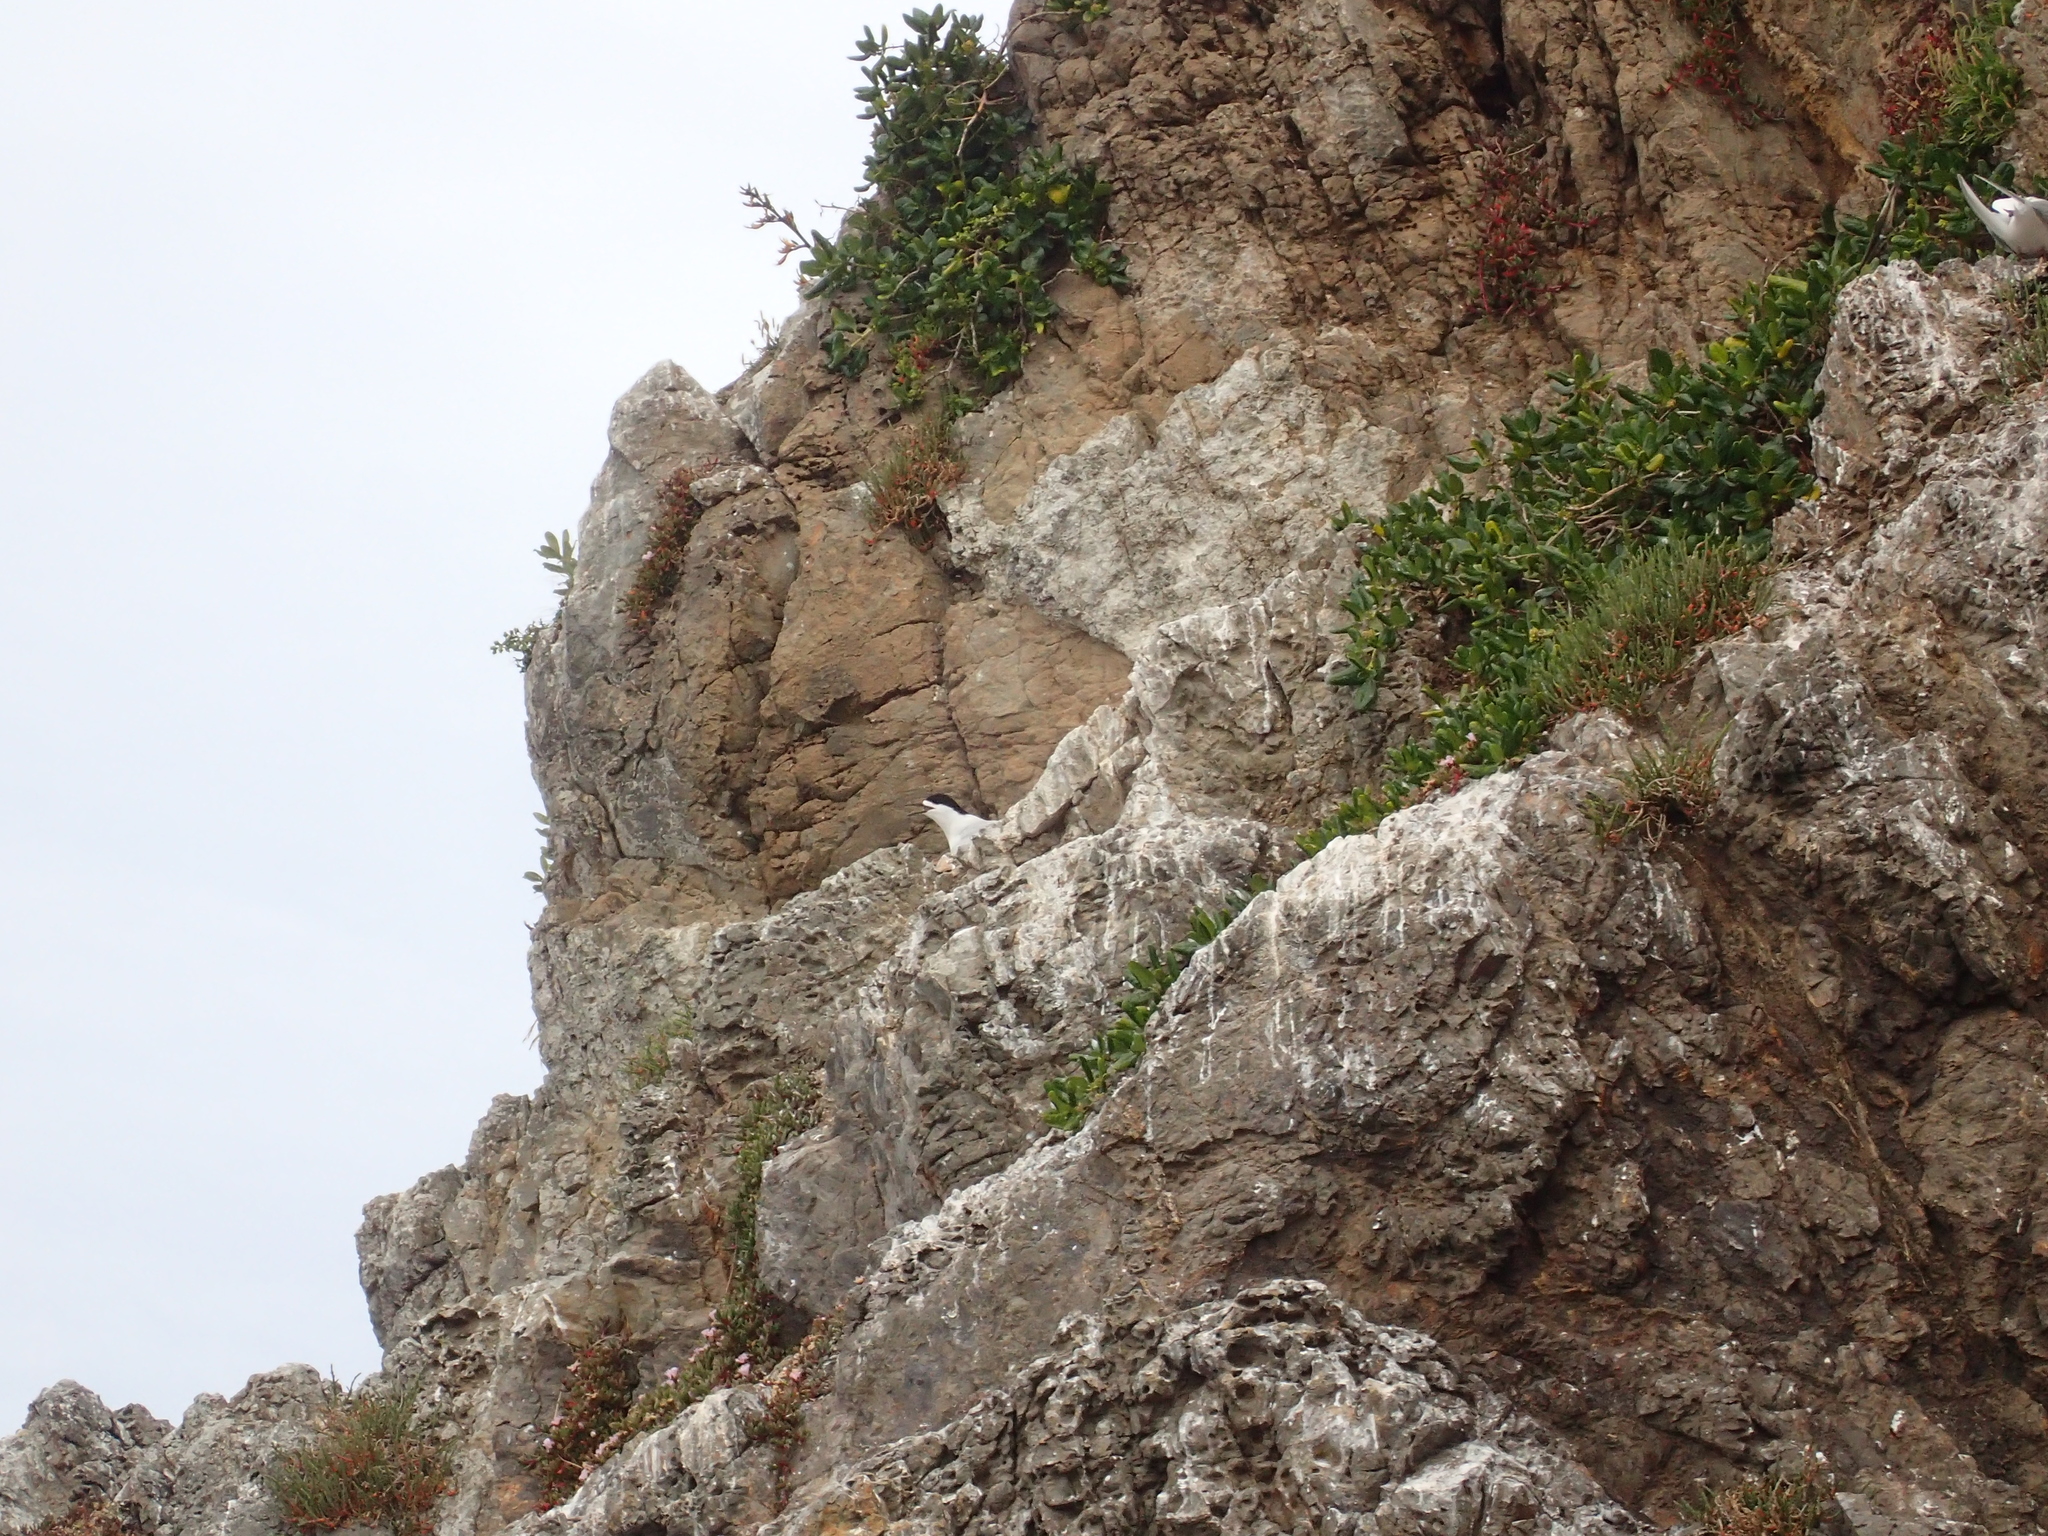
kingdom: Animalia
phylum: Chordata
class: Aves
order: Charadriiformes
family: Laridae
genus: Sterna
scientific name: Sterna striata
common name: White-fronted tern
